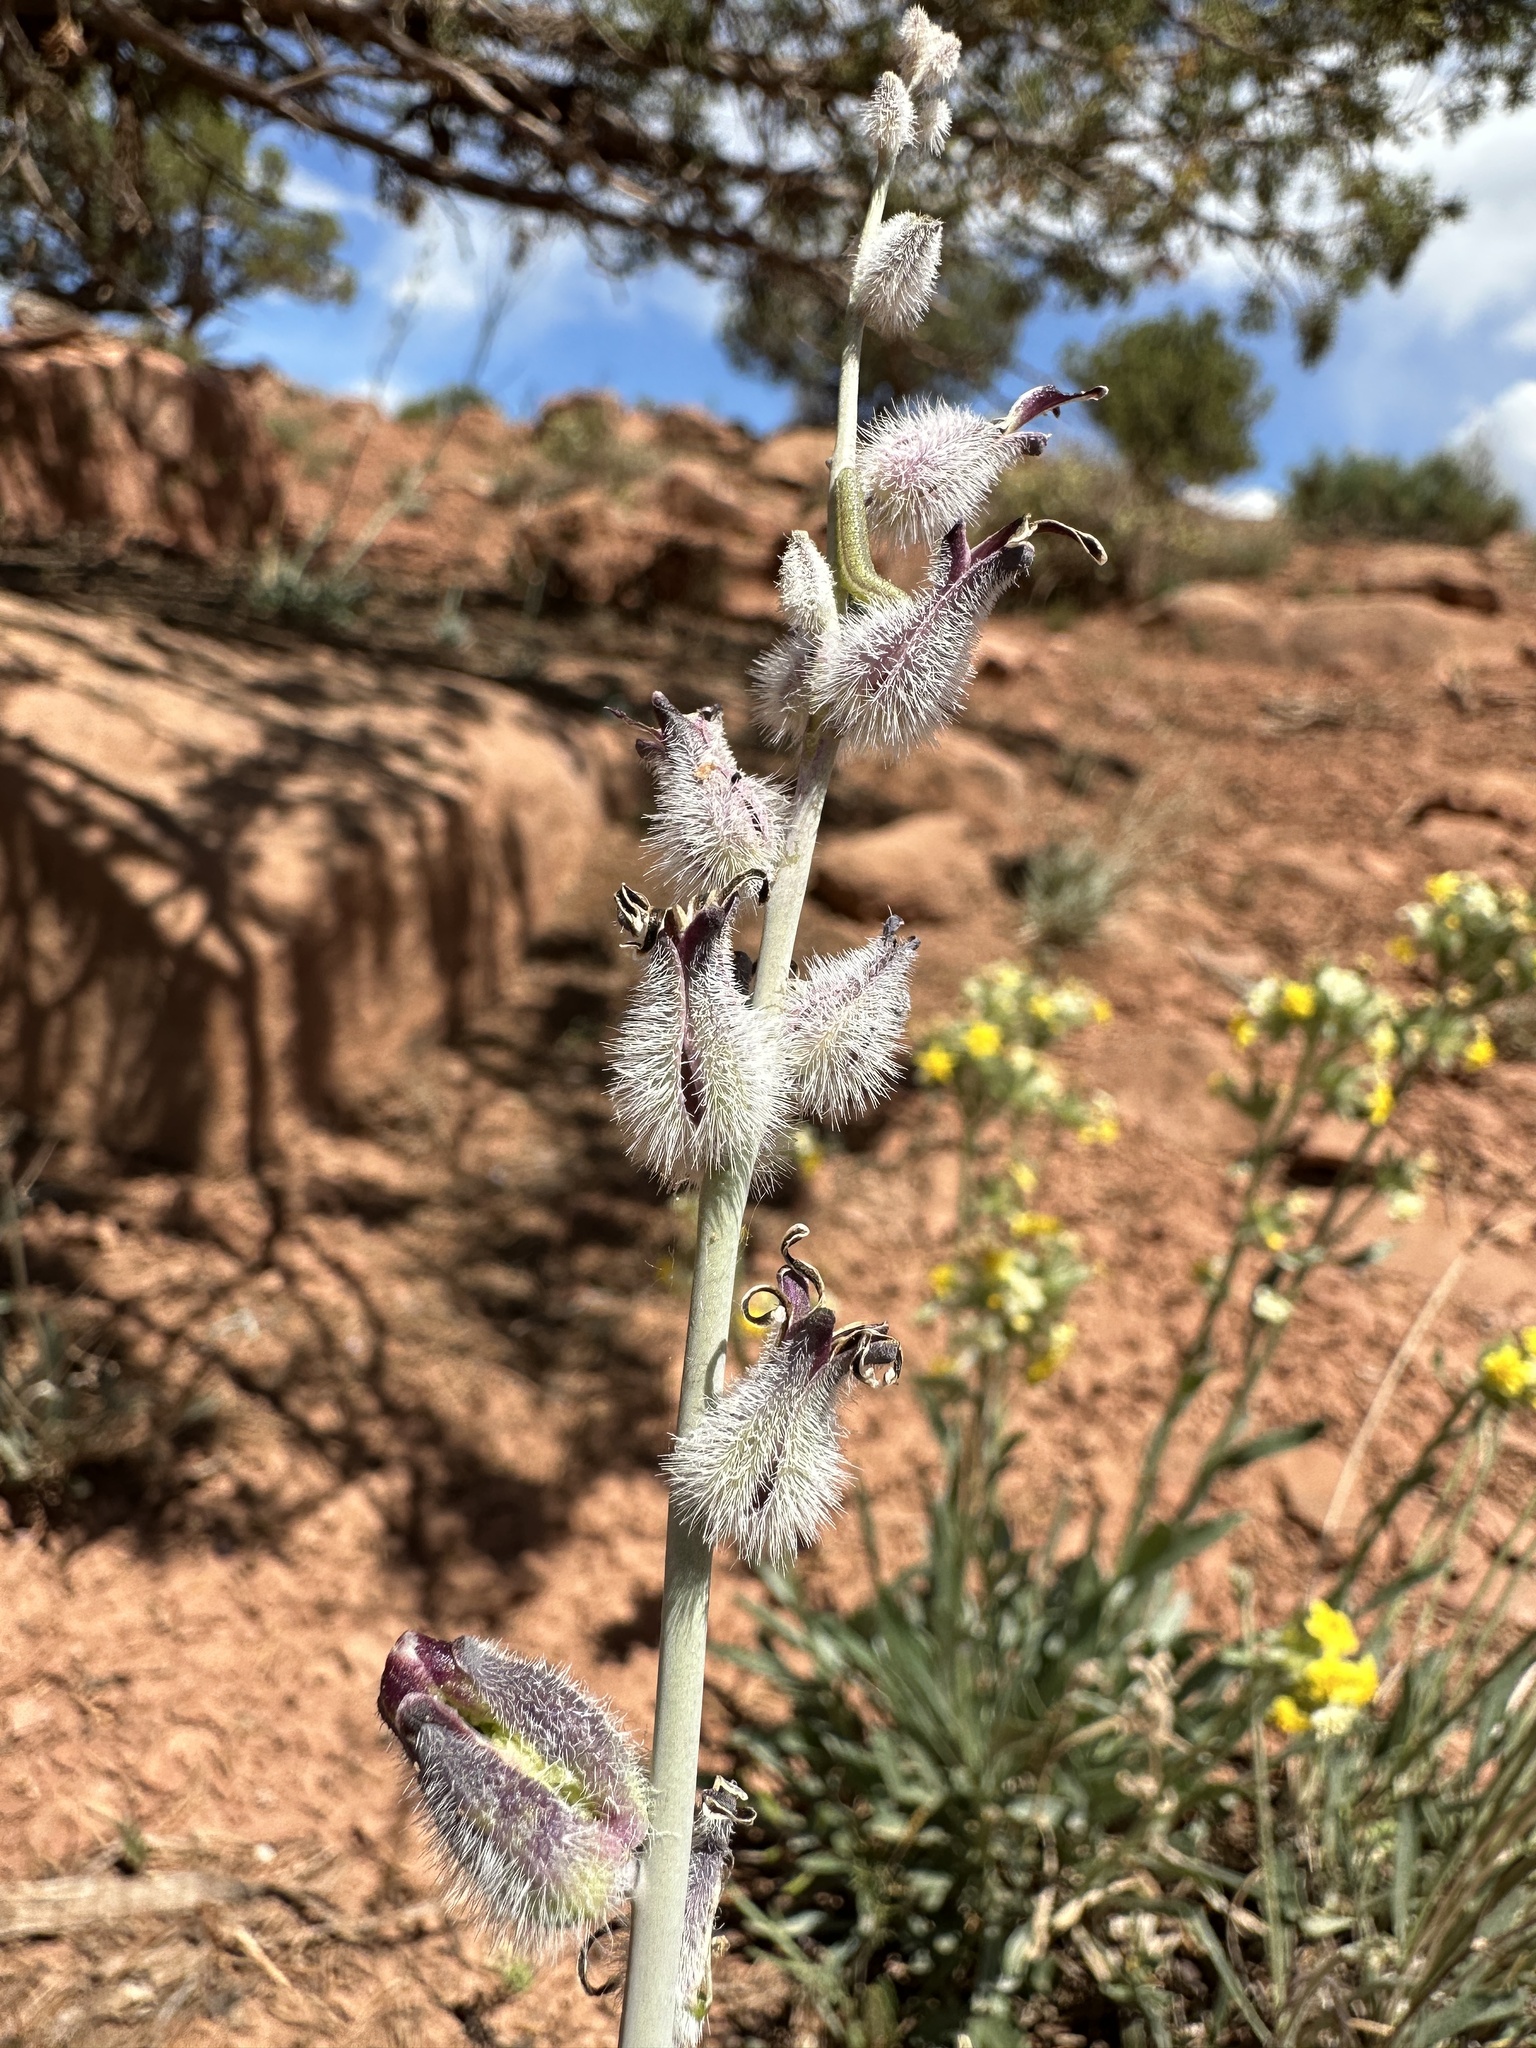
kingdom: Plantae
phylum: Tracheophyta
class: Magnoliopsida
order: Brassicales
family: Brassicaceae
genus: Streptanthus
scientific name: Streptanthus crassicaulis
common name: Thick-stem wild cabbage
